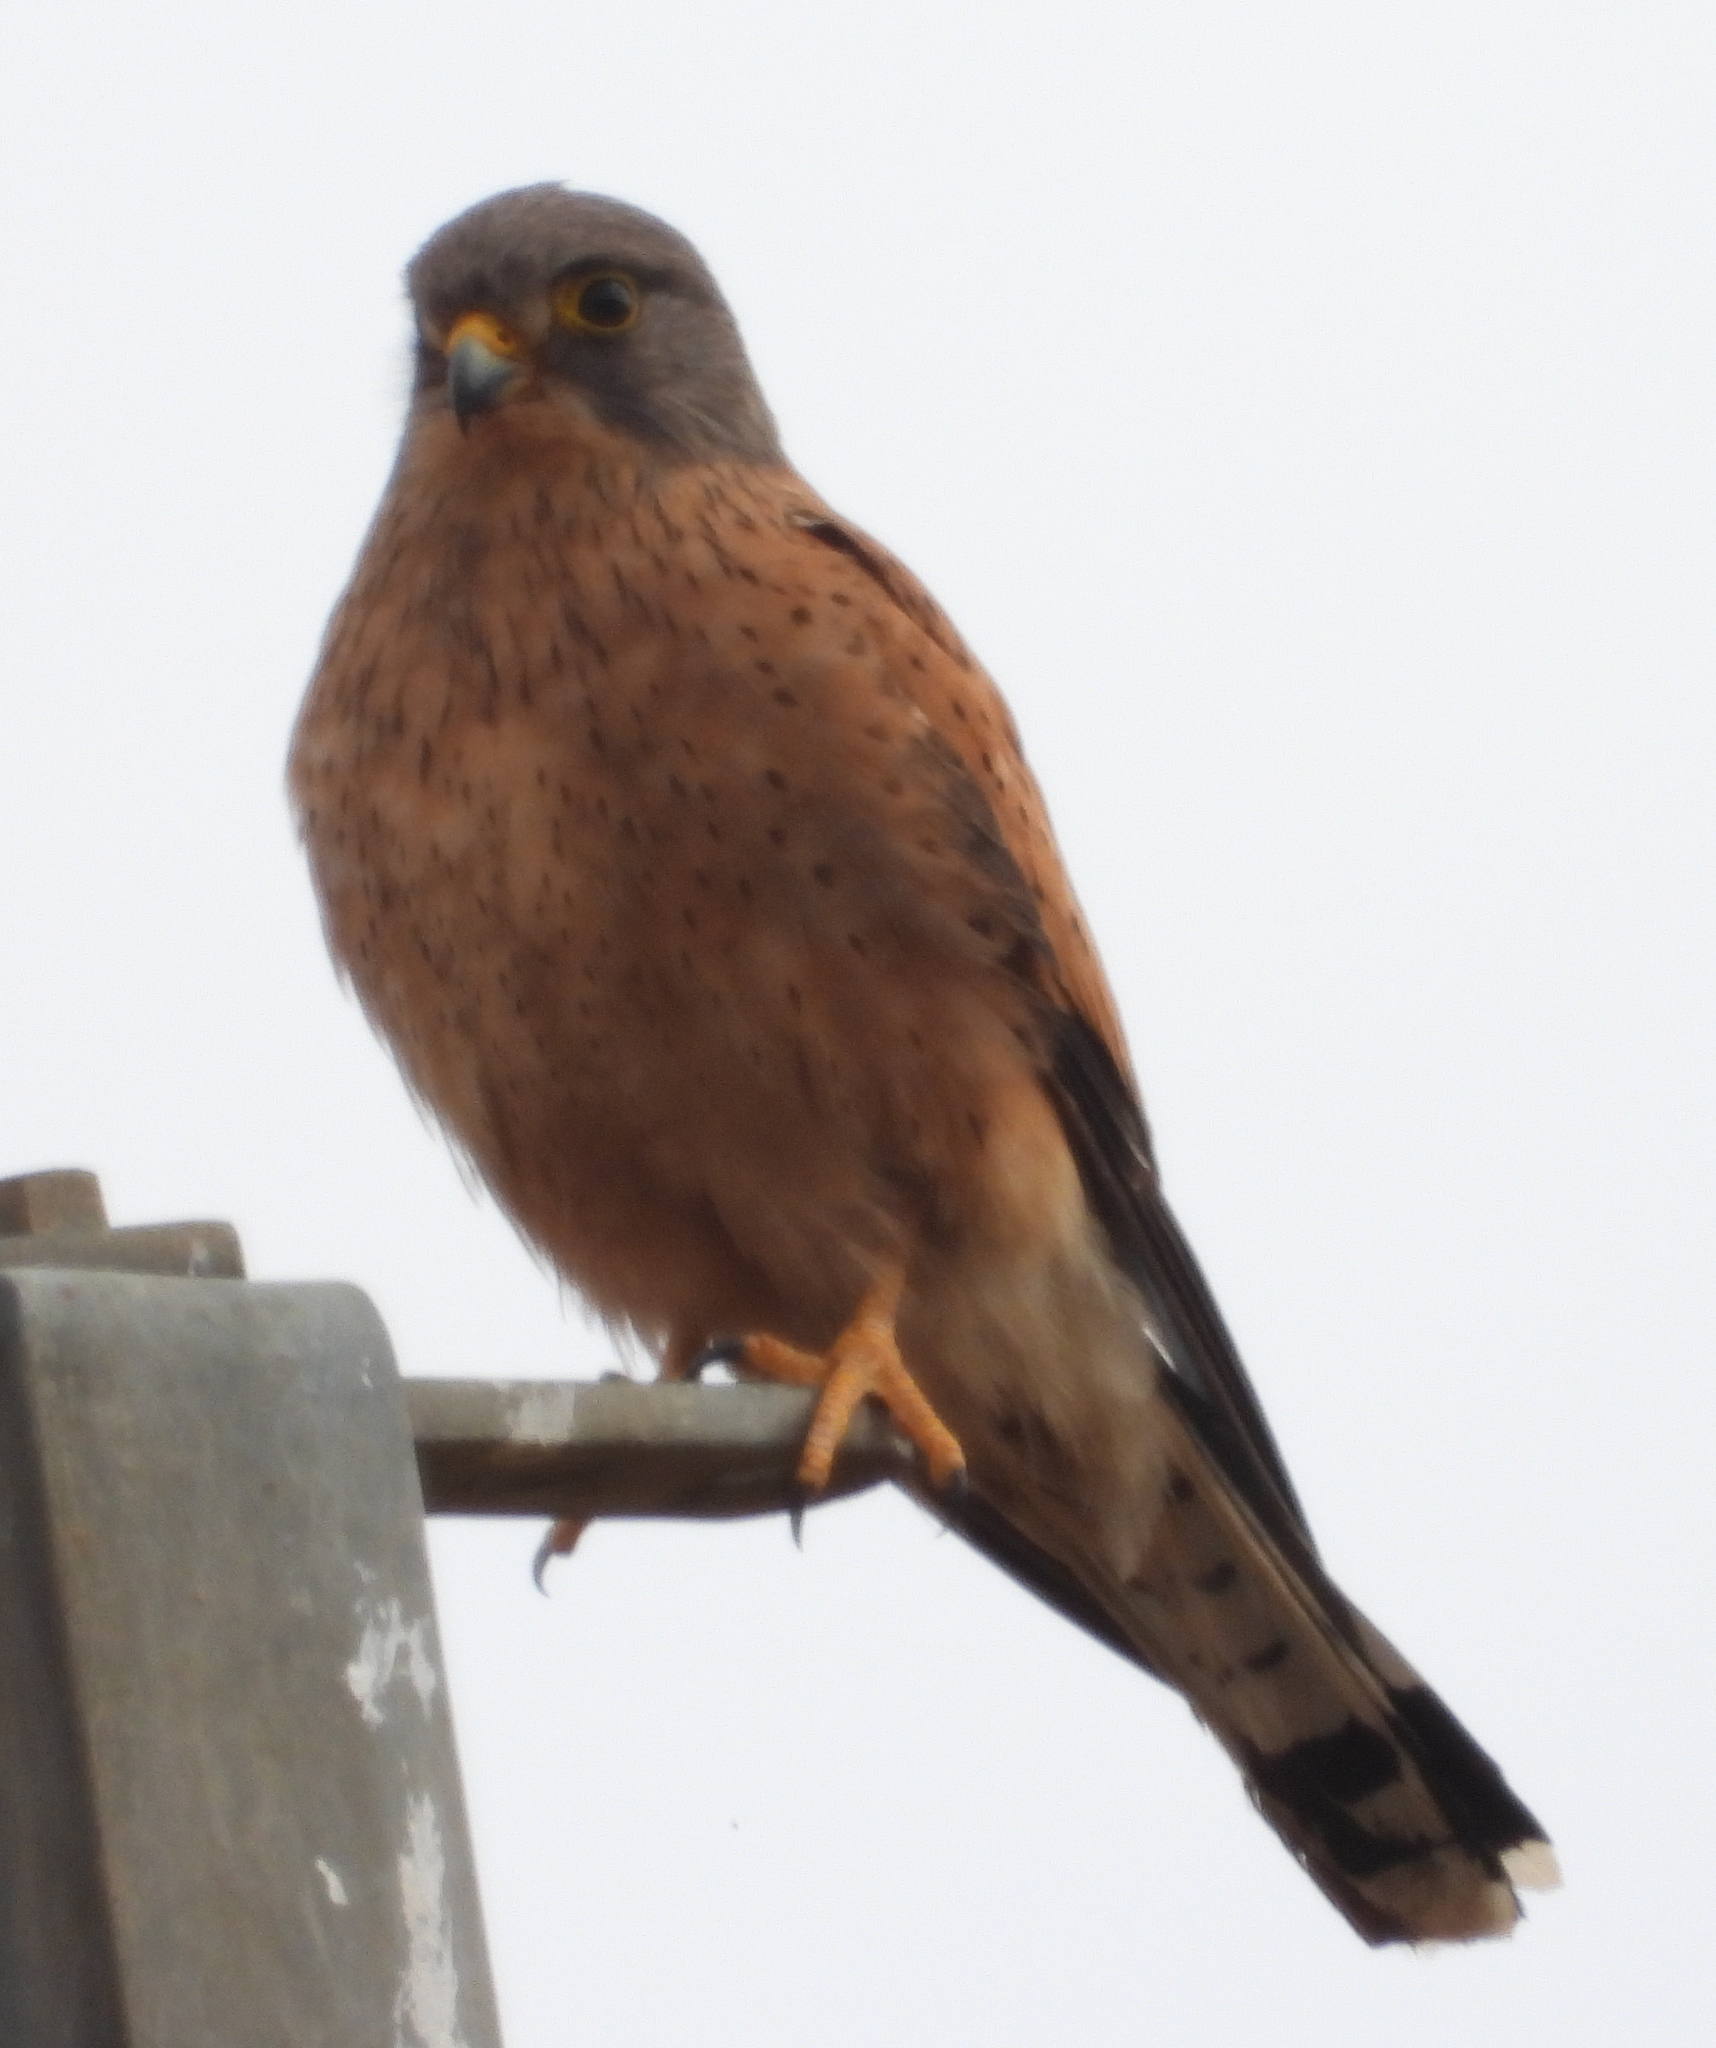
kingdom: Animalia
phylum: Chordata
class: Aves
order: Falconiformes
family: Falconidae
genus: Falco
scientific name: Falco rupicolus
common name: Rock kestrel
